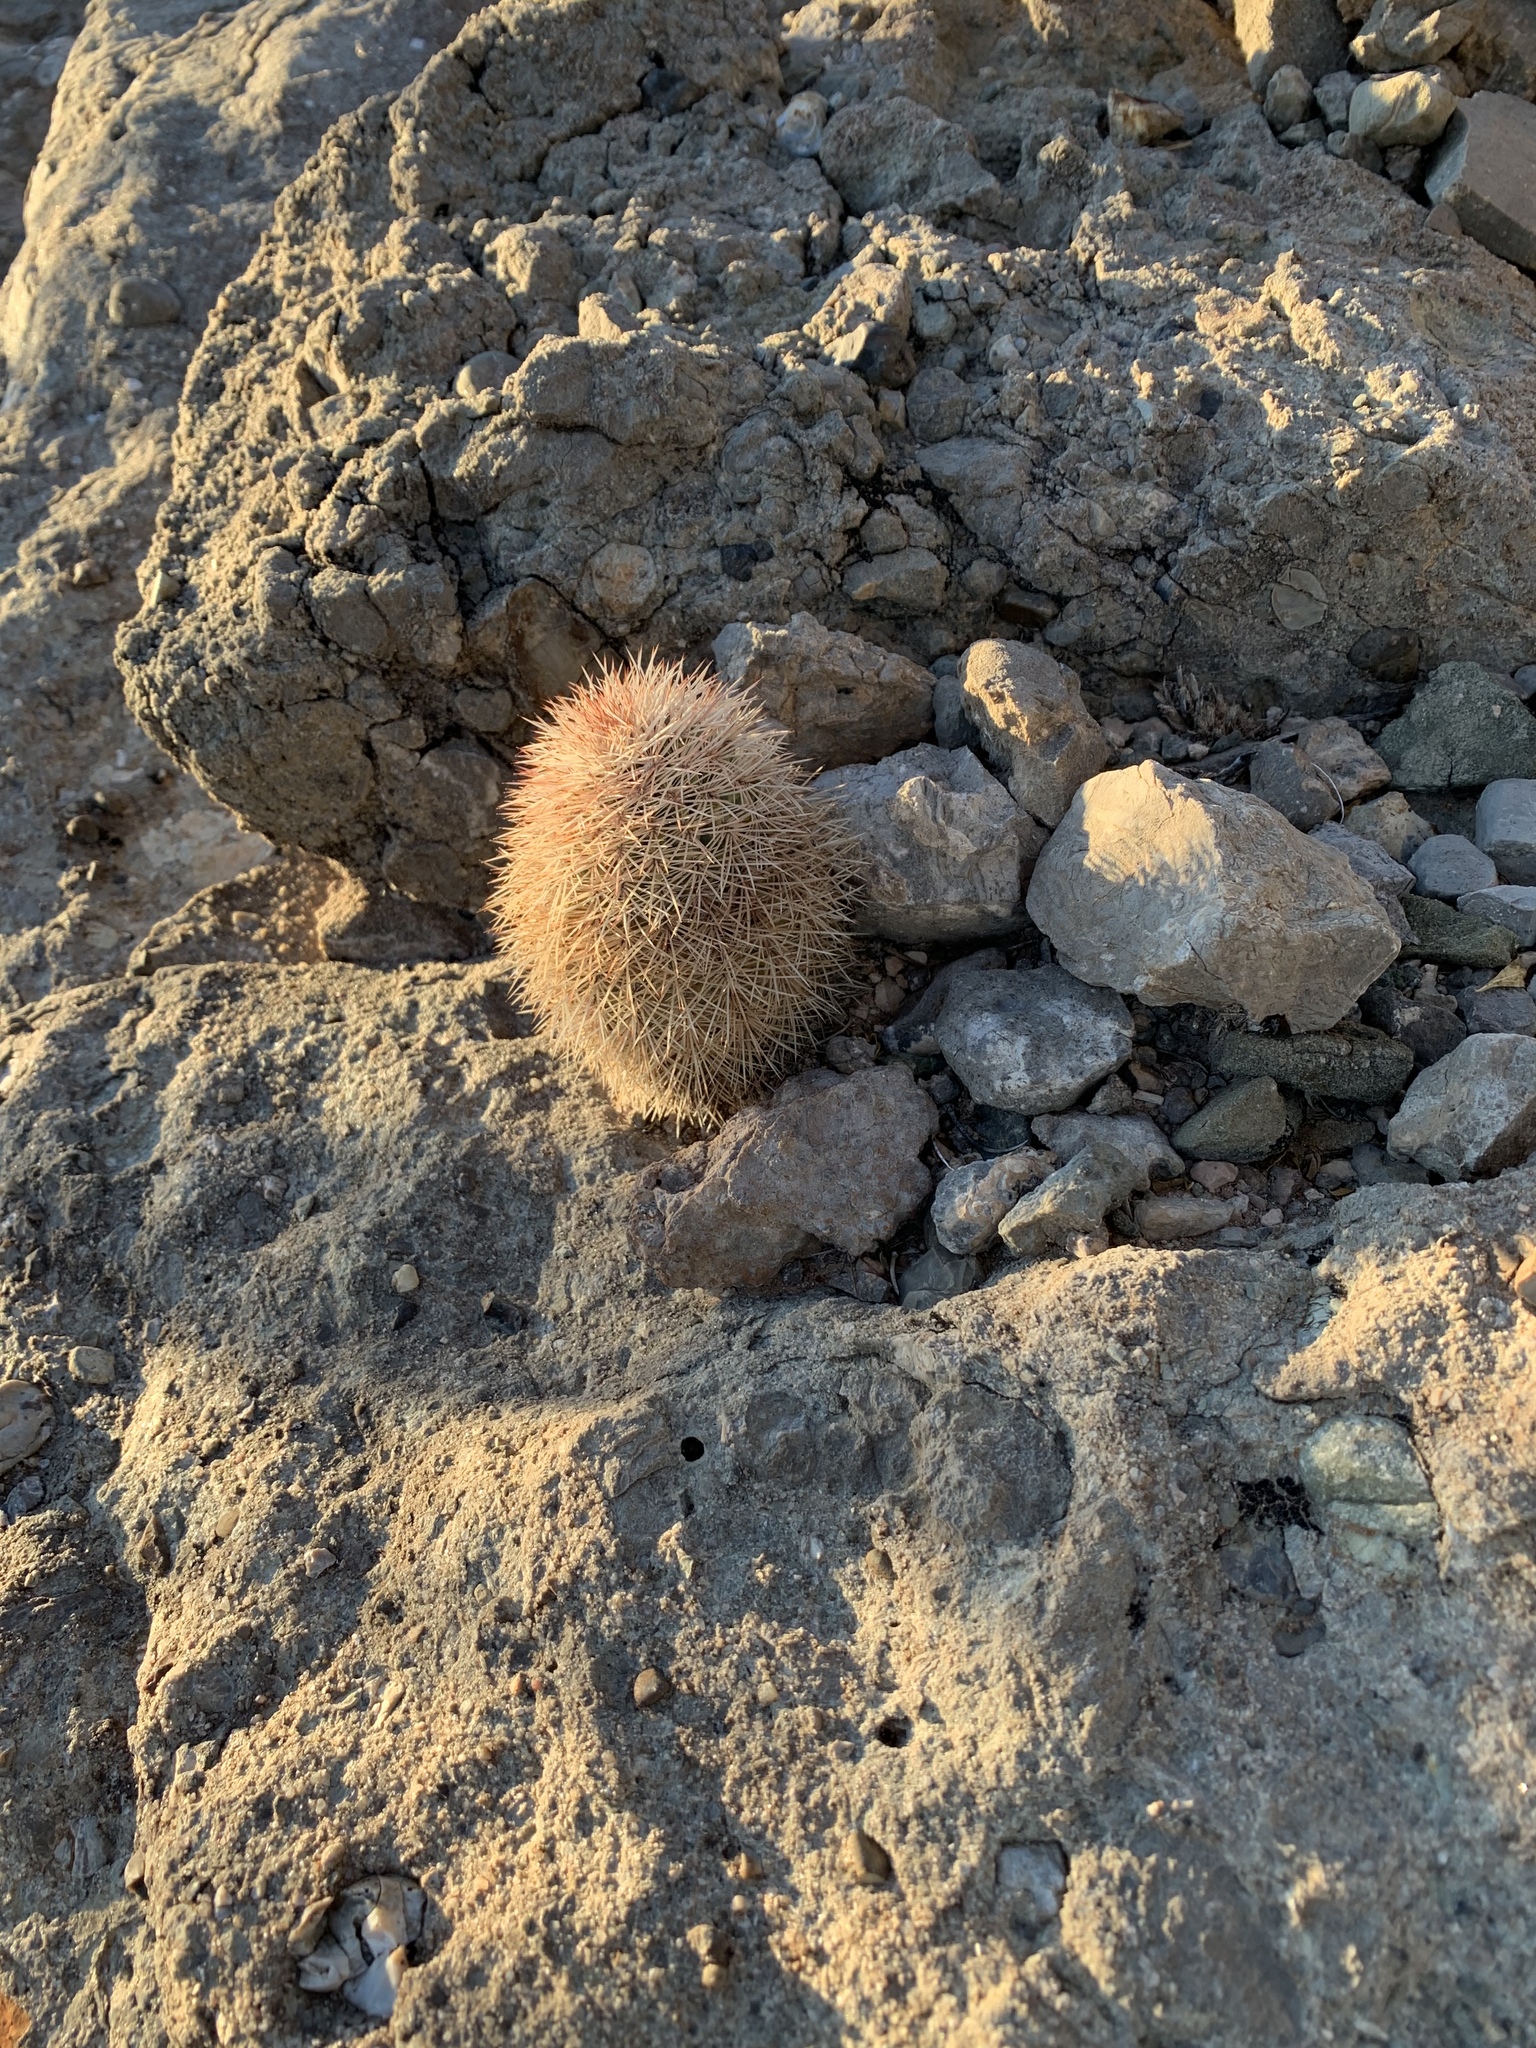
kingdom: Plantae
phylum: Tracheophyta
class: Magnoliopsida
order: Caryophyllales
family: Cactaceae
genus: Echinocereus
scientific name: Echinocereus dasyacanthus
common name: Spiny hedgehog cactus
